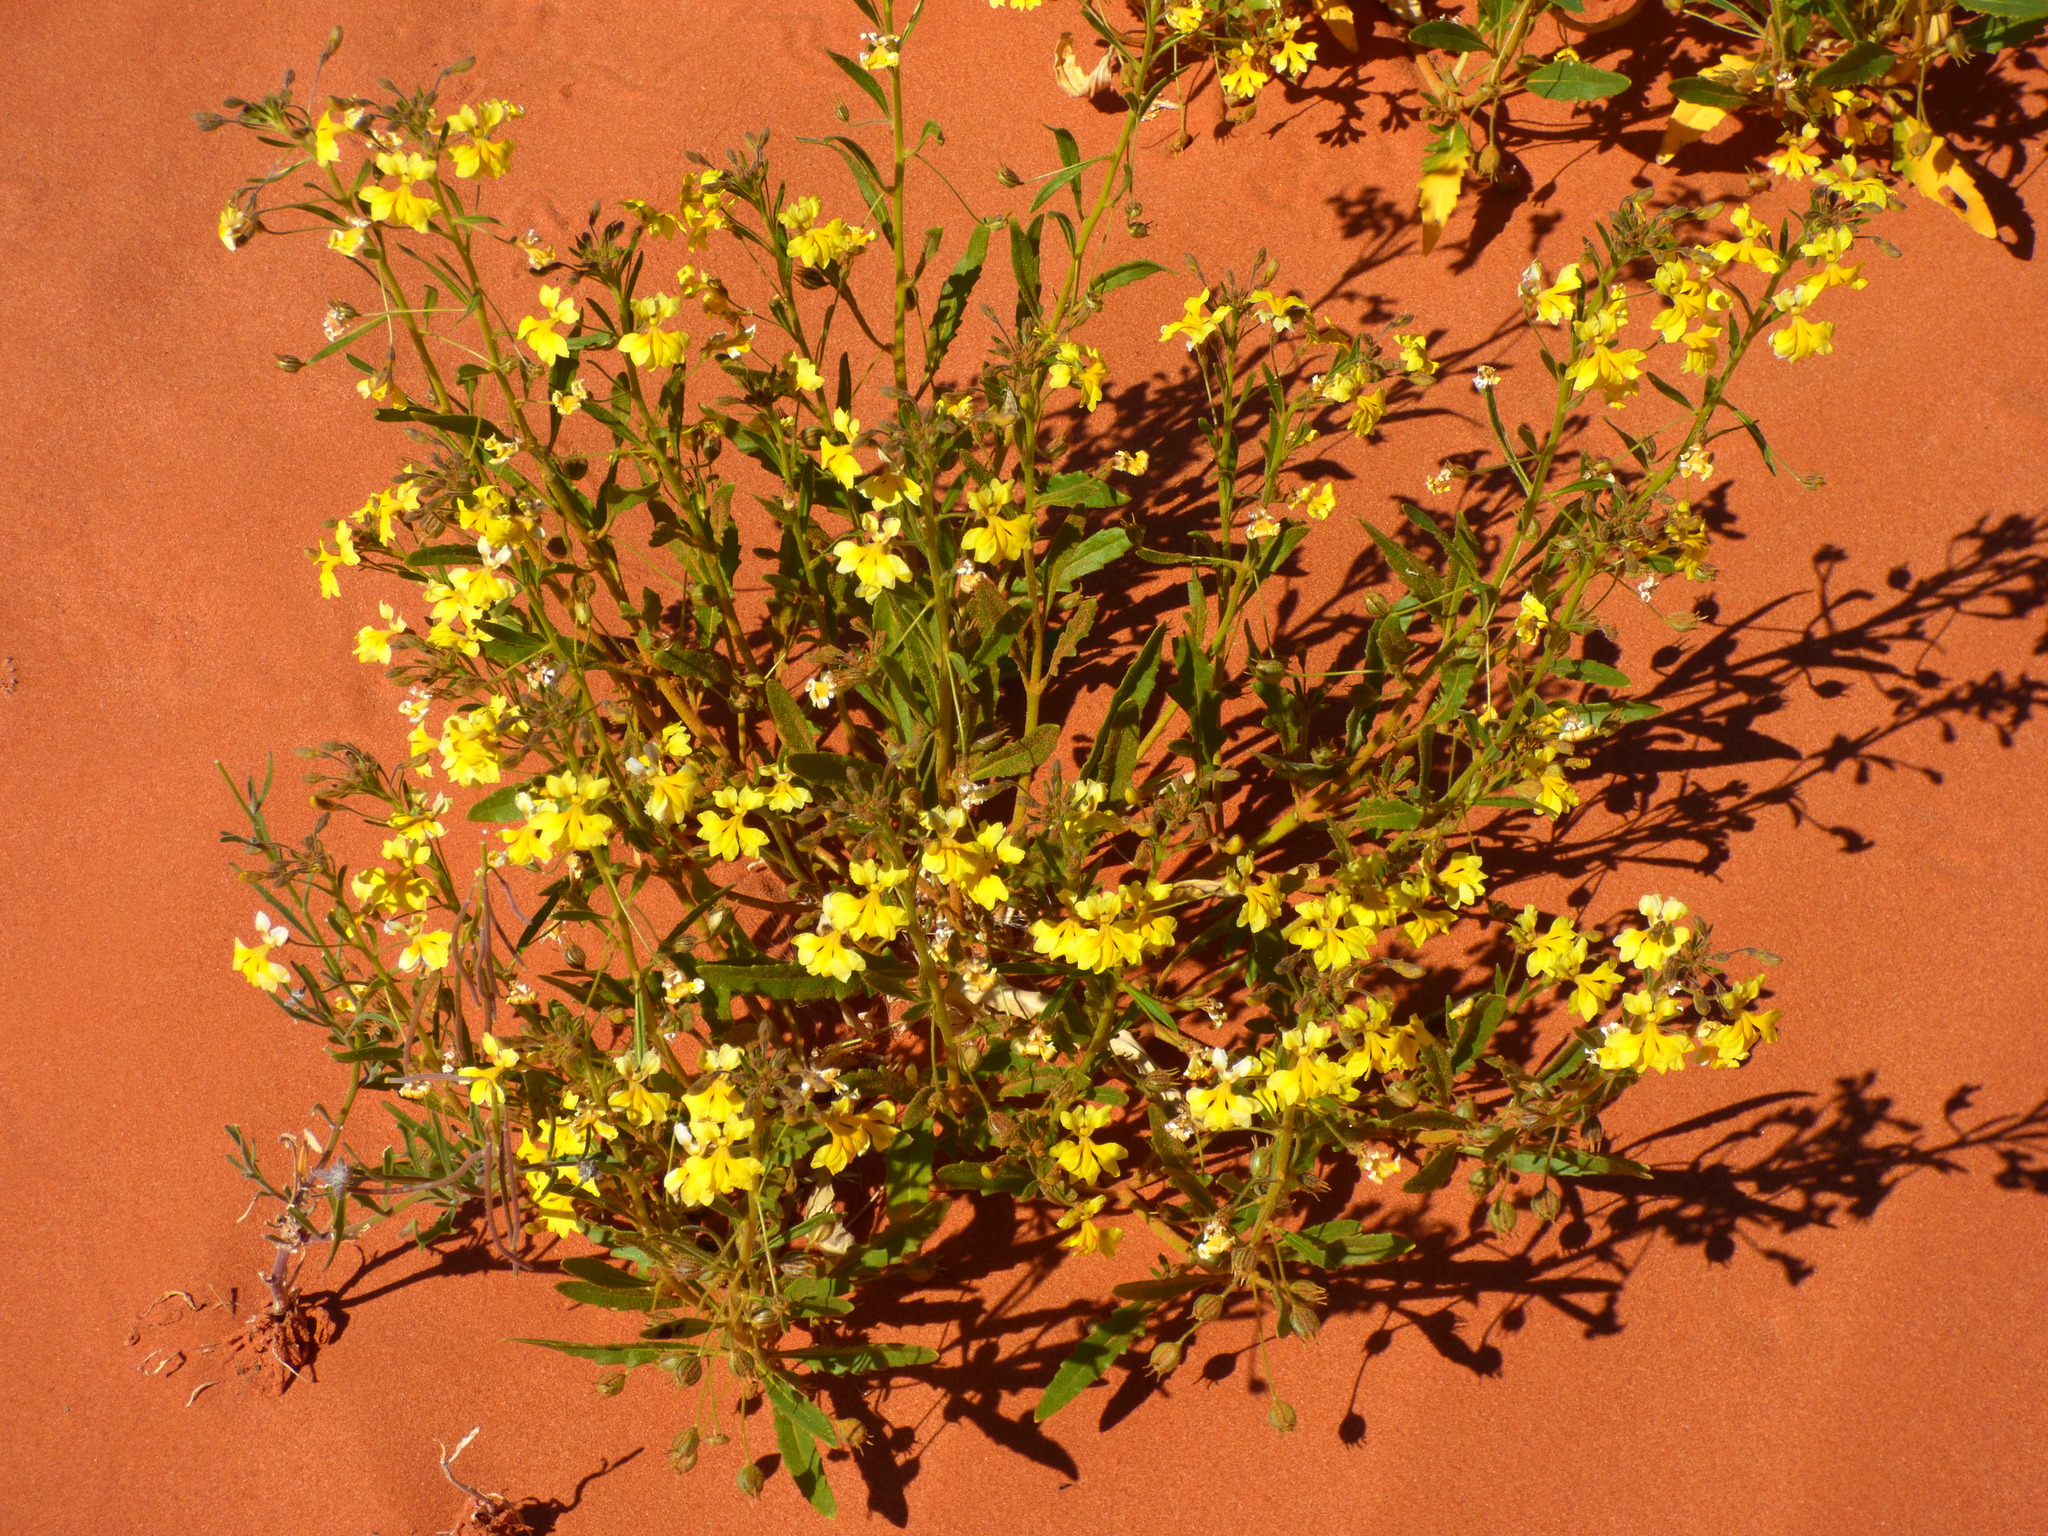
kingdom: Plantae
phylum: Tracheophyta
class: Magnoliopsida
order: Asterales
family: Goodeniaceae
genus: Goodenia
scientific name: Goodenia cycloptera
